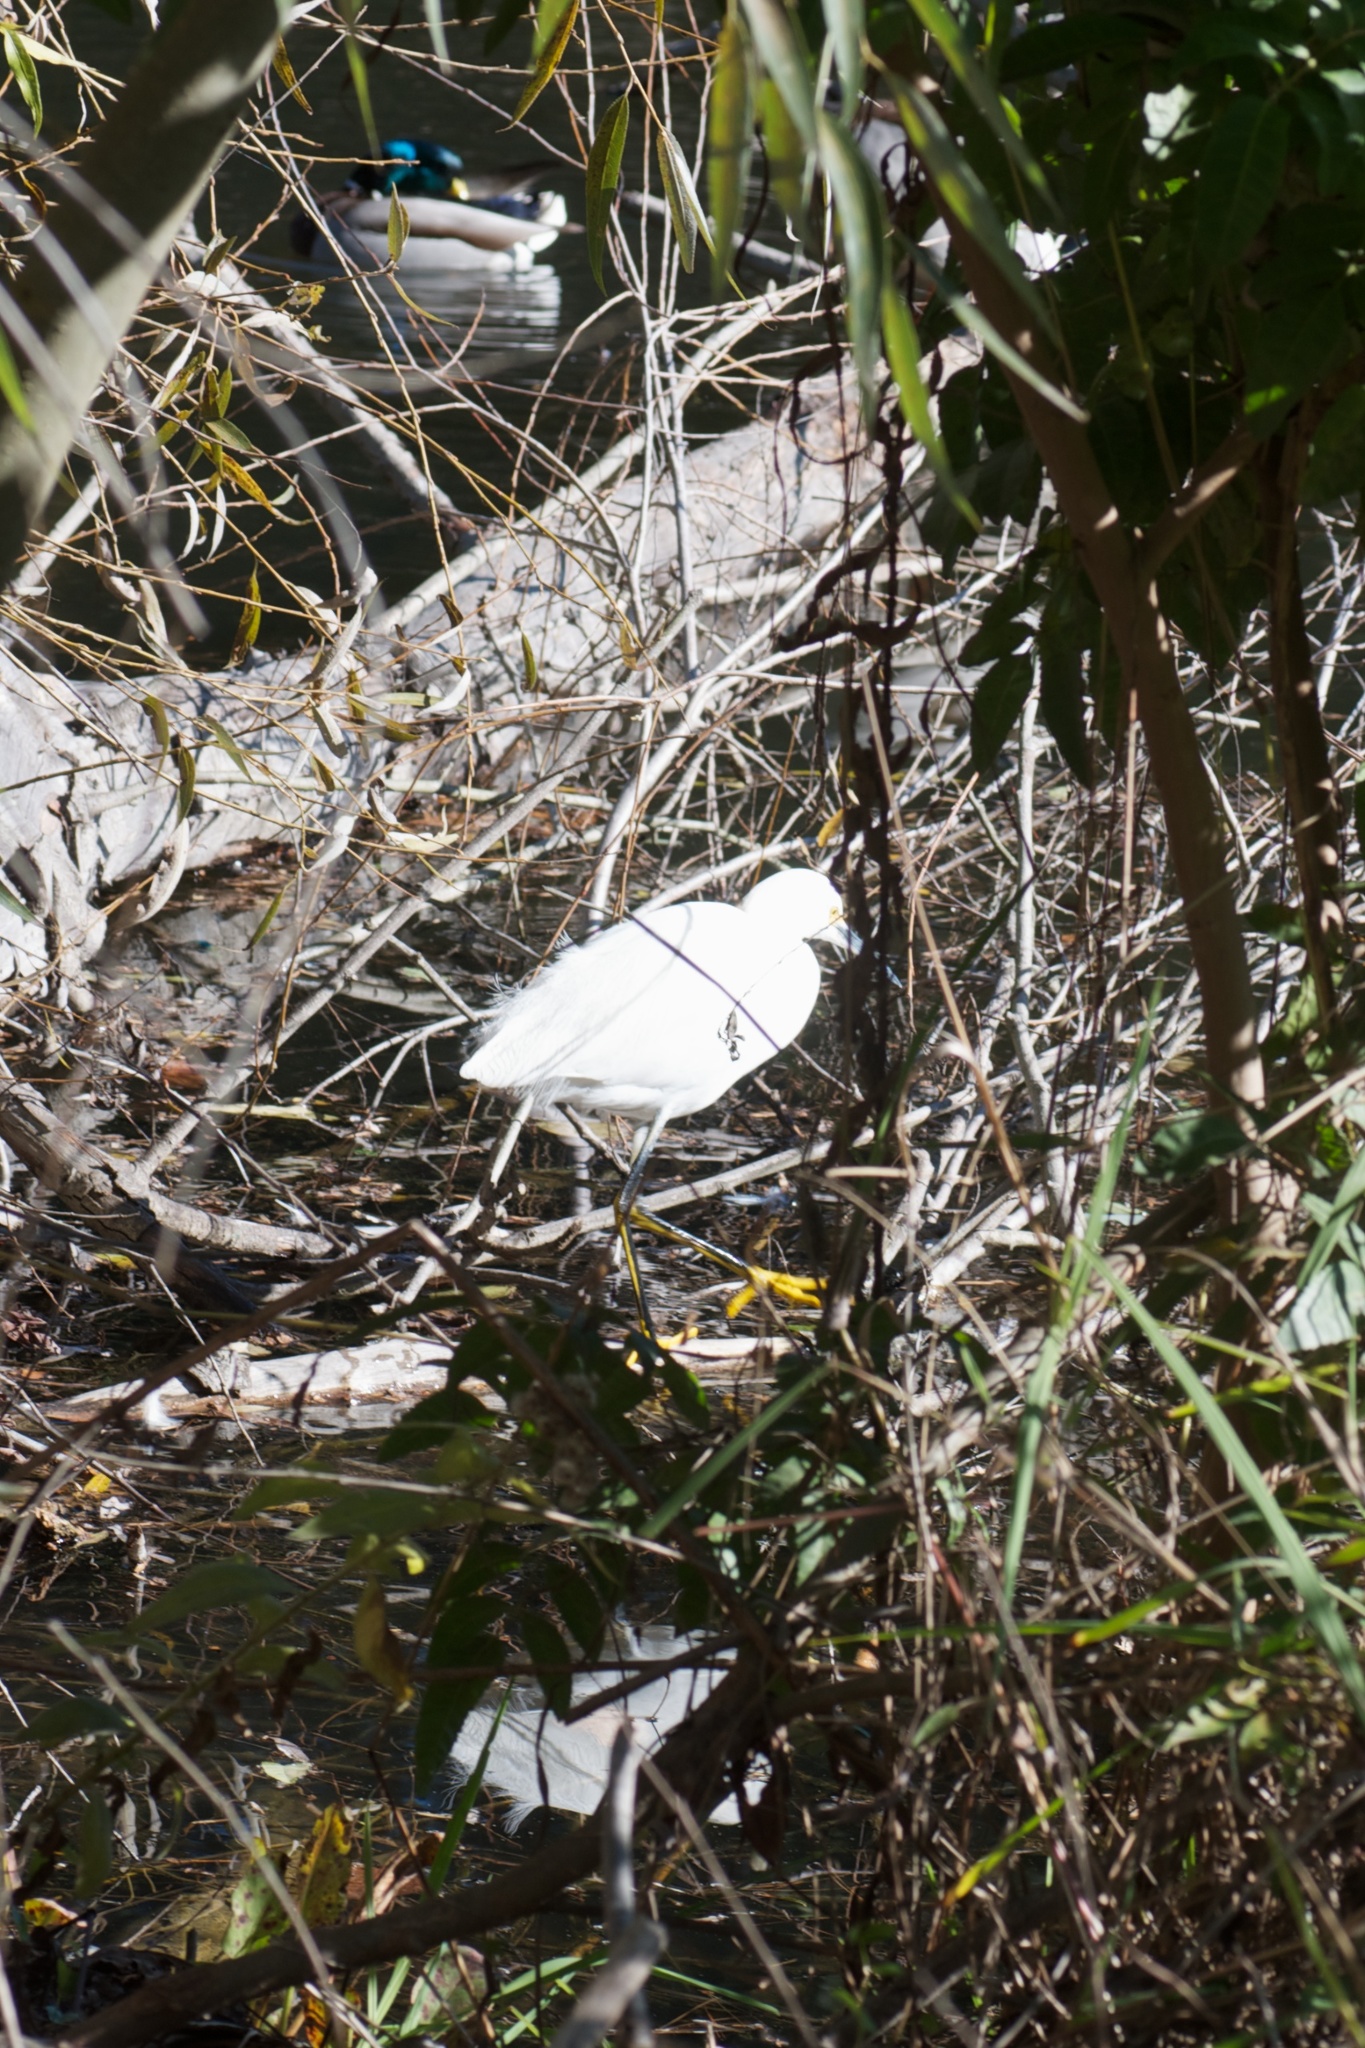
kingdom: Animalia
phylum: Chordata
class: Aves
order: Pelecaniformes
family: Ardeidae
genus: Egretta
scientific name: Egretta thula
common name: Snowy egret
